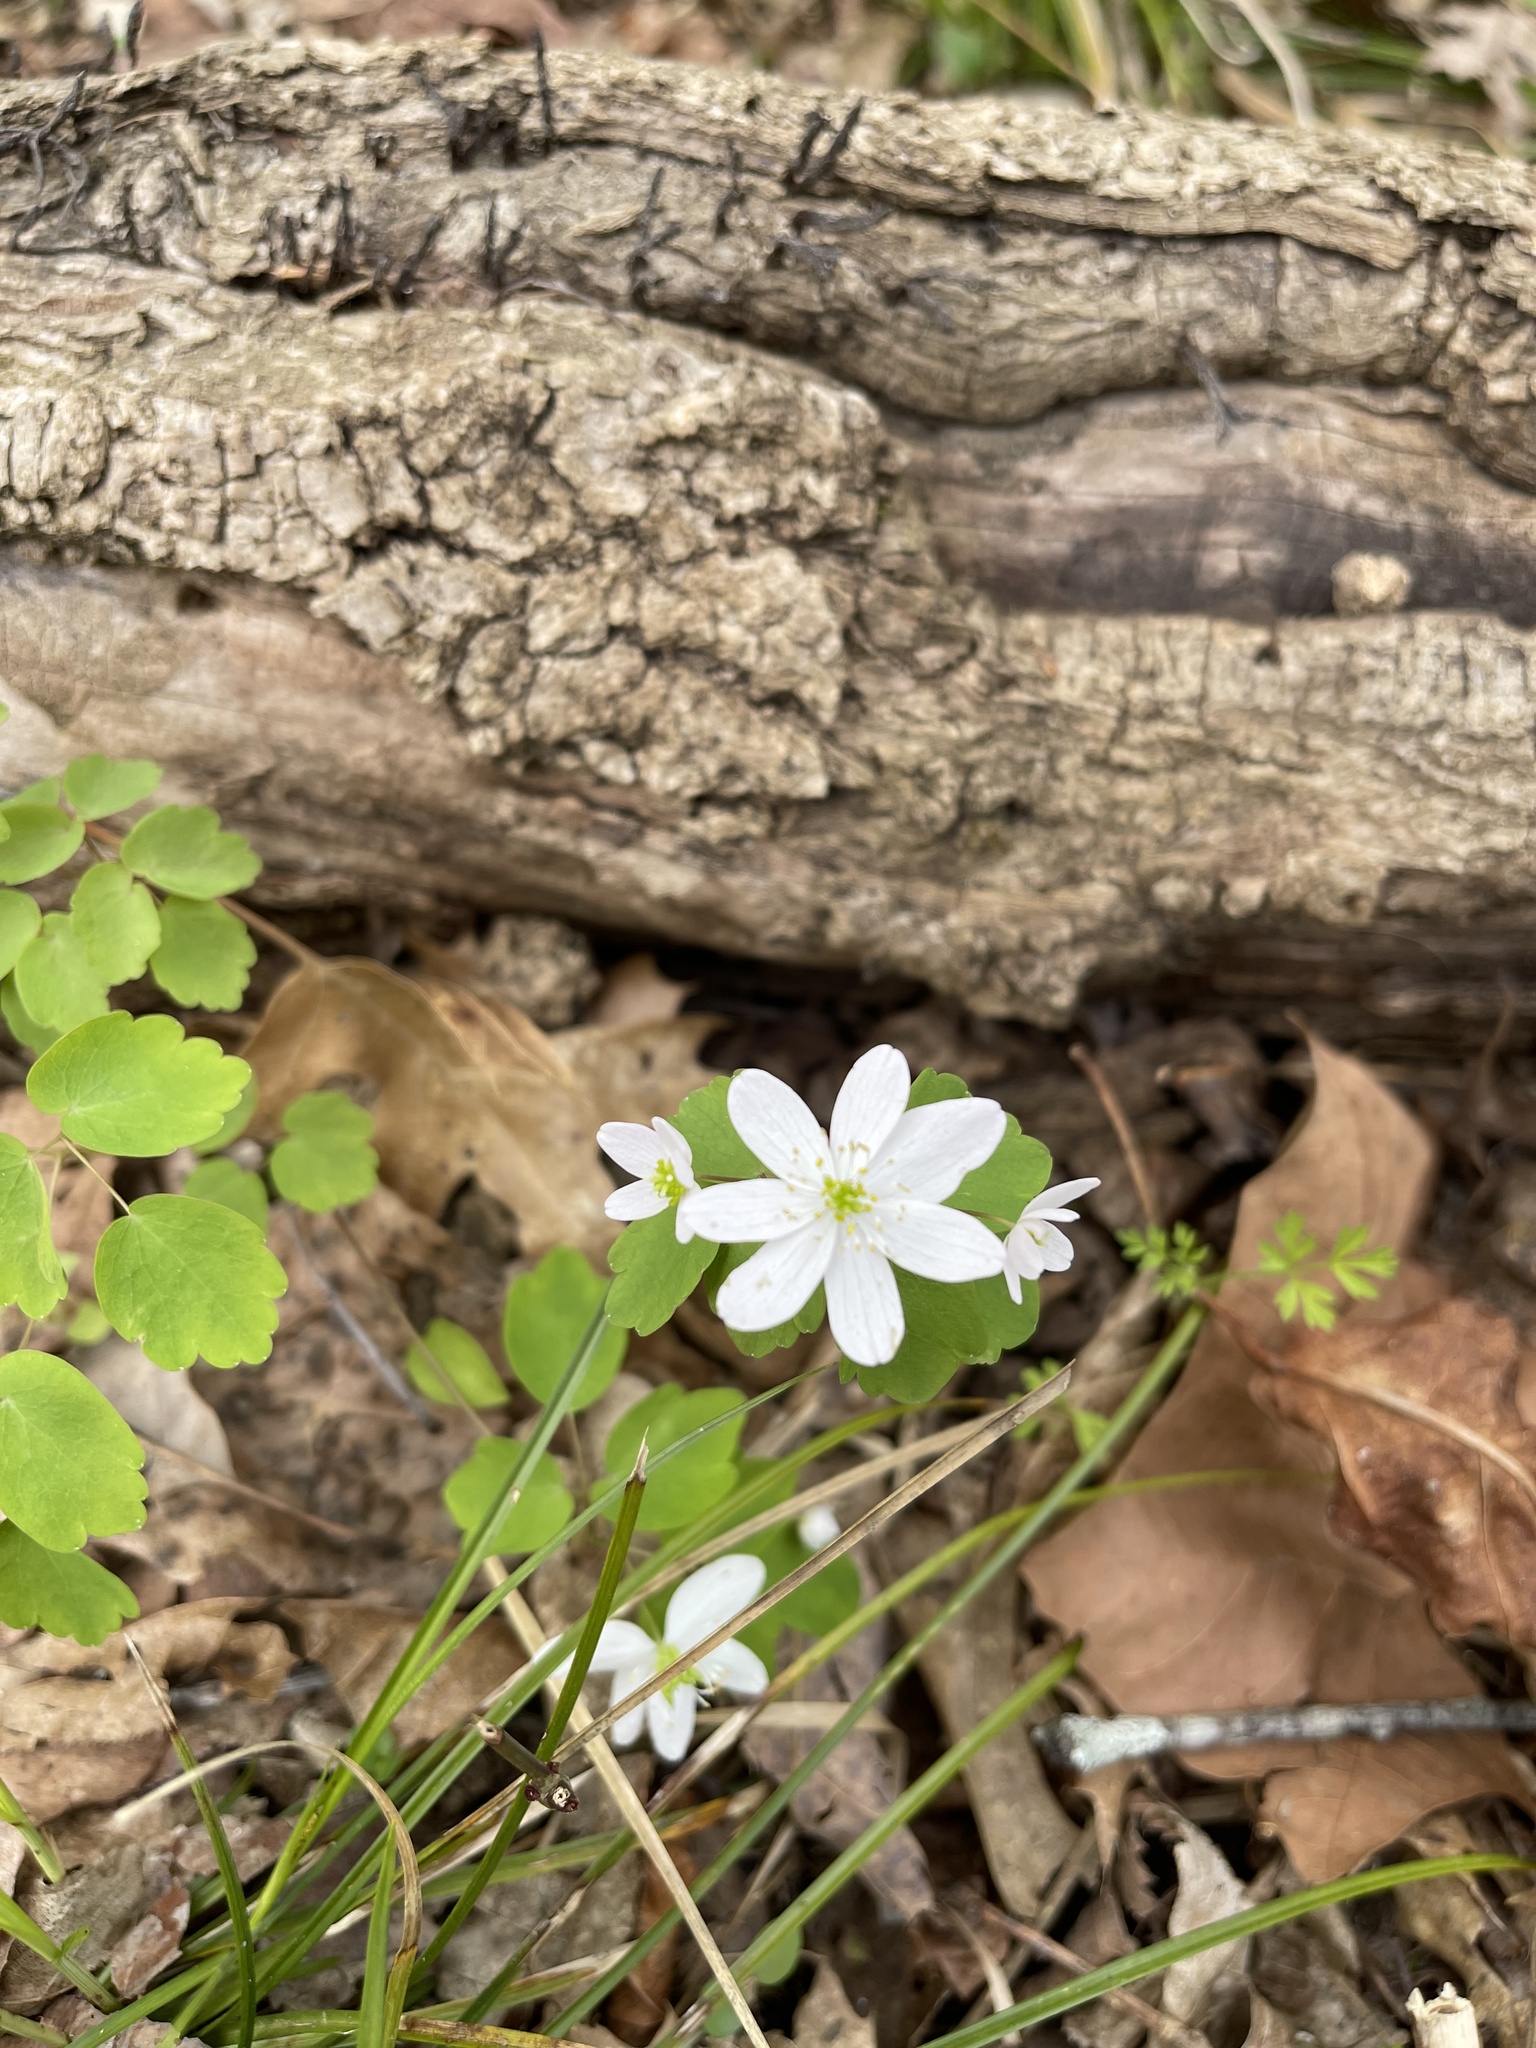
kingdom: Plantae
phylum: Tracheophyta
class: Magnoliopsida
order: Ranunculales
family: Ranunculaceae
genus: Thalictrum
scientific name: Thalictrum thalictroides
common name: Rue-anemone
